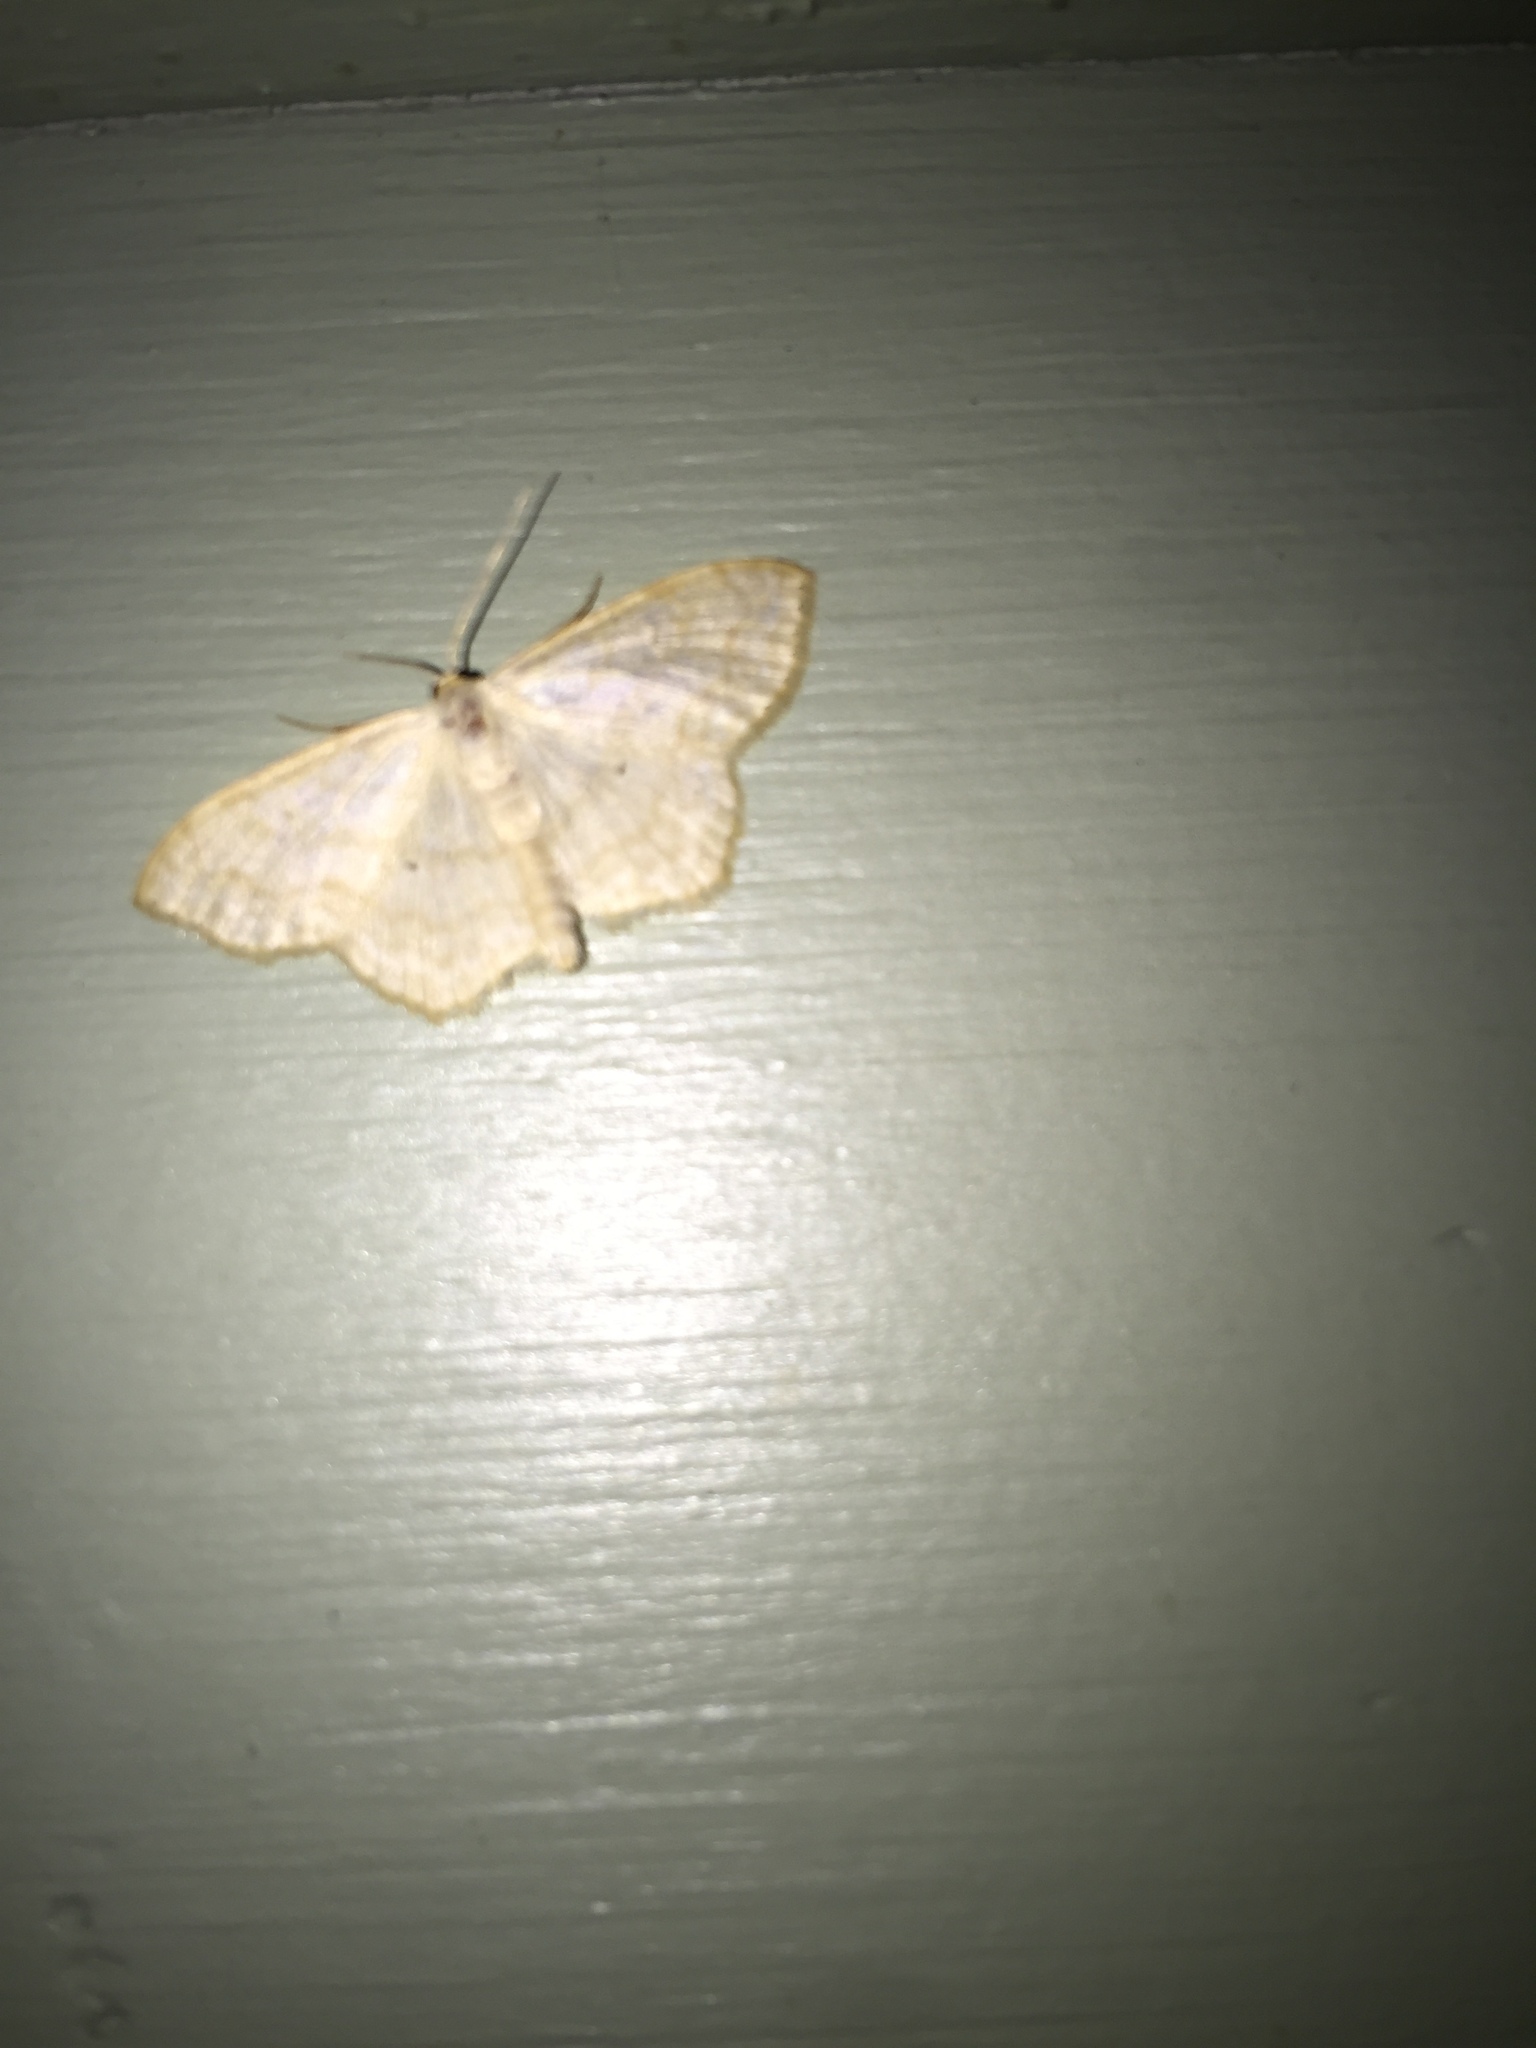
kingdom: Animalia
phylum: Arthropoda
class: Insecta
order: Lepidoptera
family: Geometridae
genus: Scopula
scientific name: Scopula limboundata
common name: Large lace border
